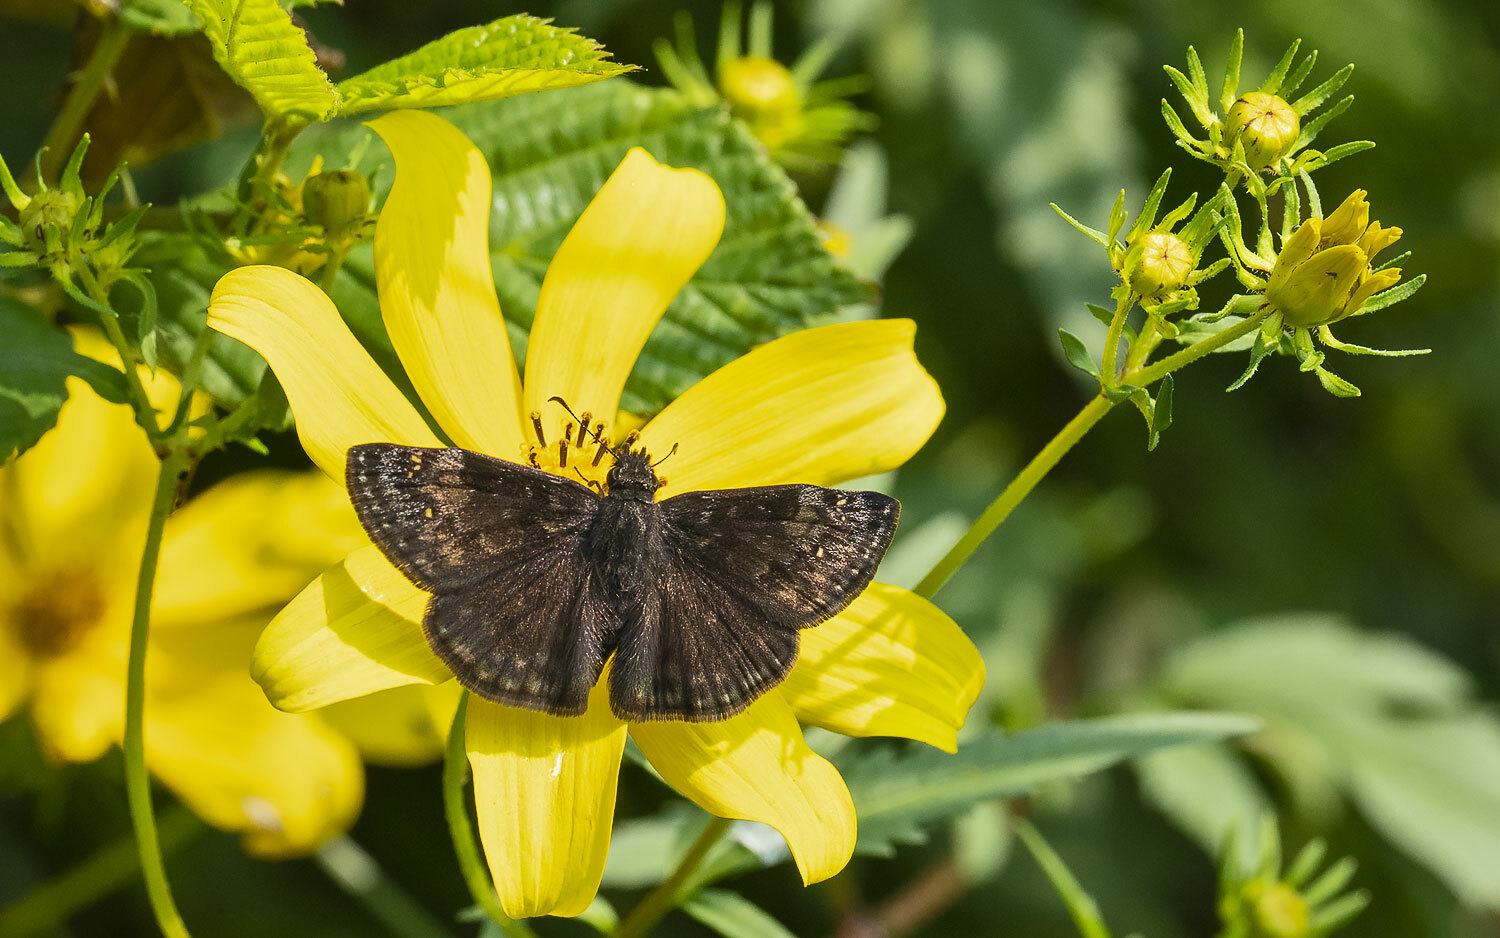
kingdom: Animalia
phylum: Arthropoda
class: Insecta
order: Lepidoptera
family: Hesperiidae
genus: Erynnis
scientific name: Erynnis baptisiae
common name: Wild indigo duskywing
